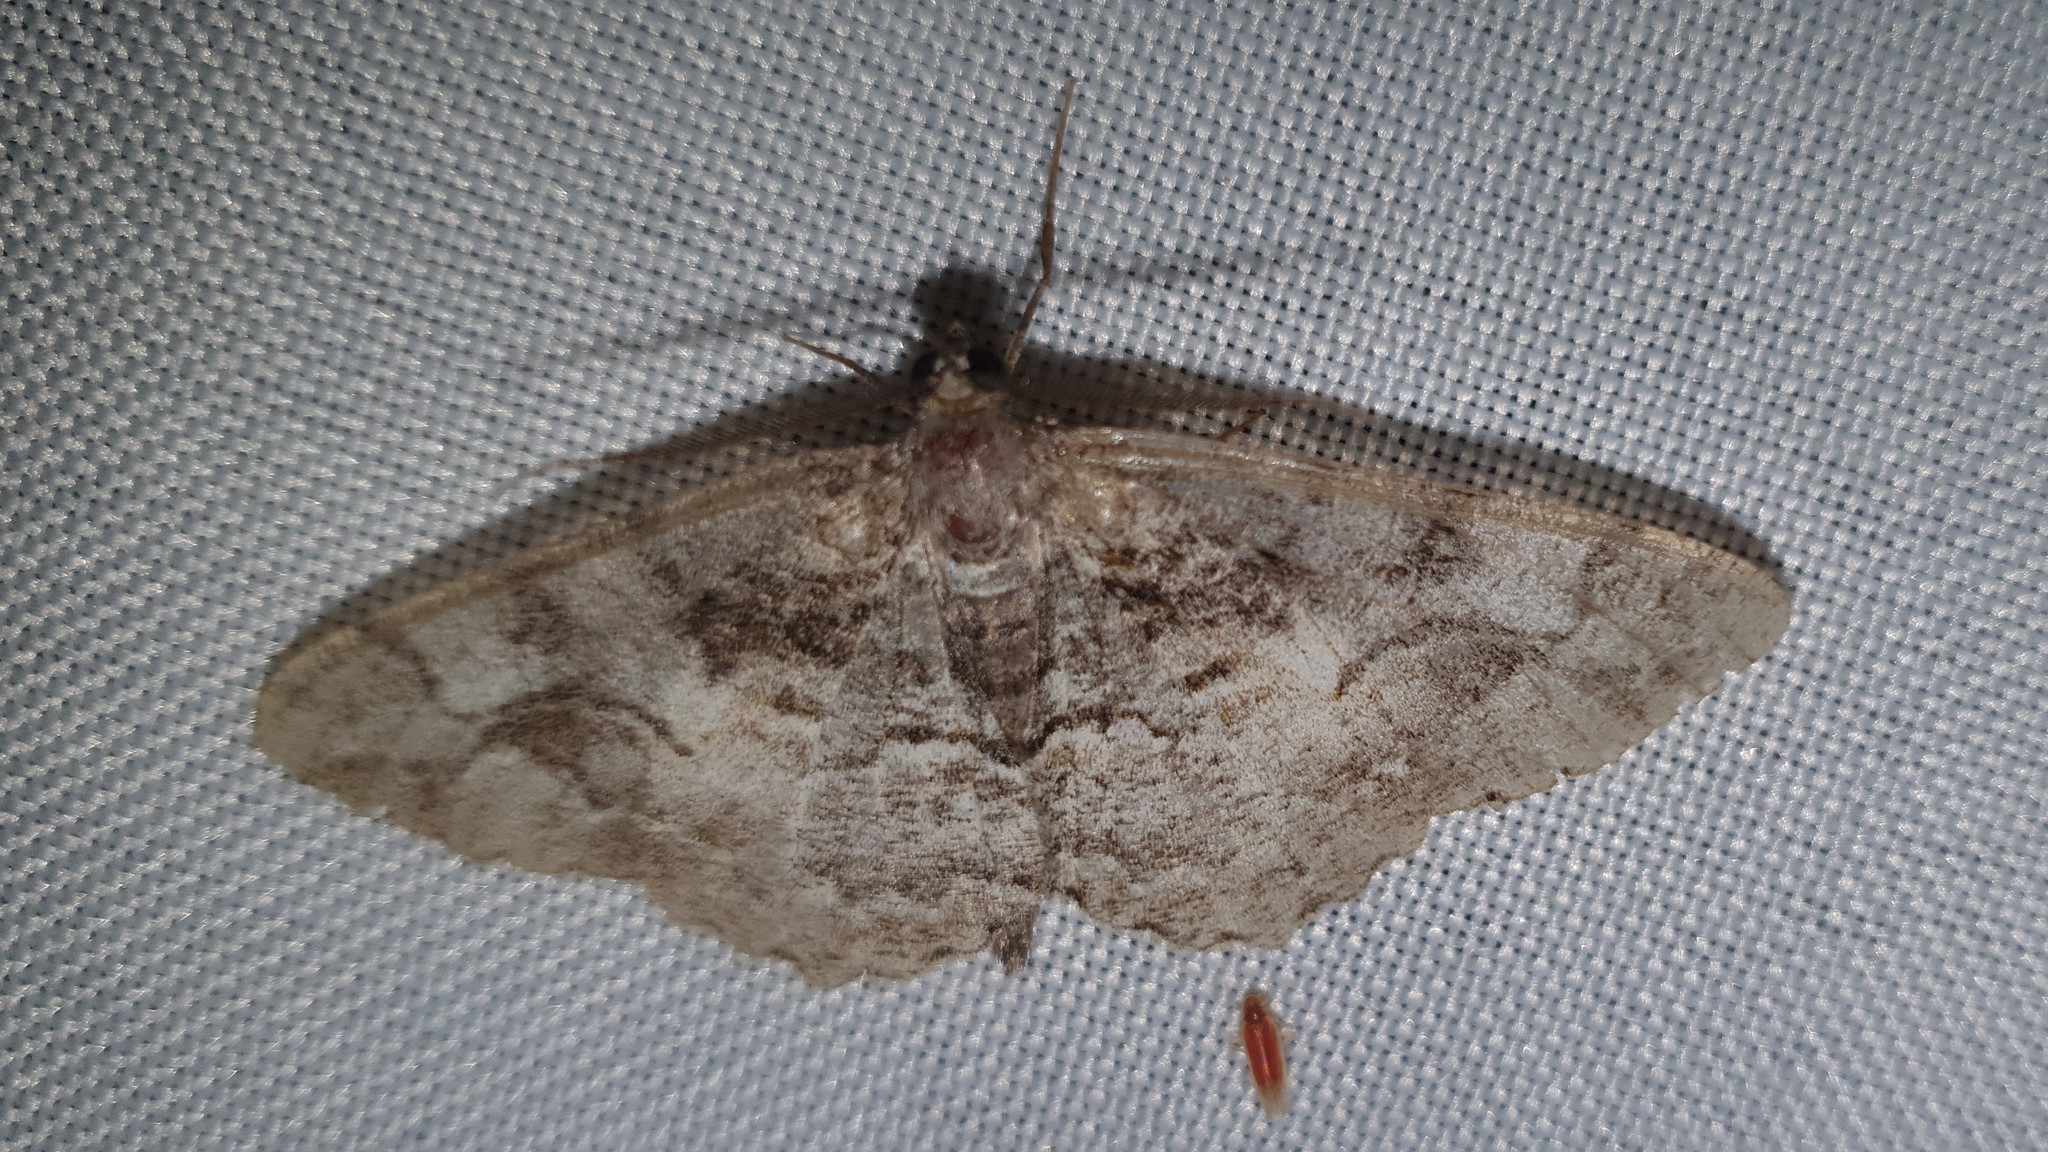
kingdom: Animalia
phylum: Arthropoda
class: Insecta
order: Lepidoptera
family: Geometridae
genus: Alcis
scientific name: Alcis repandata
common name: Mottled beauty
